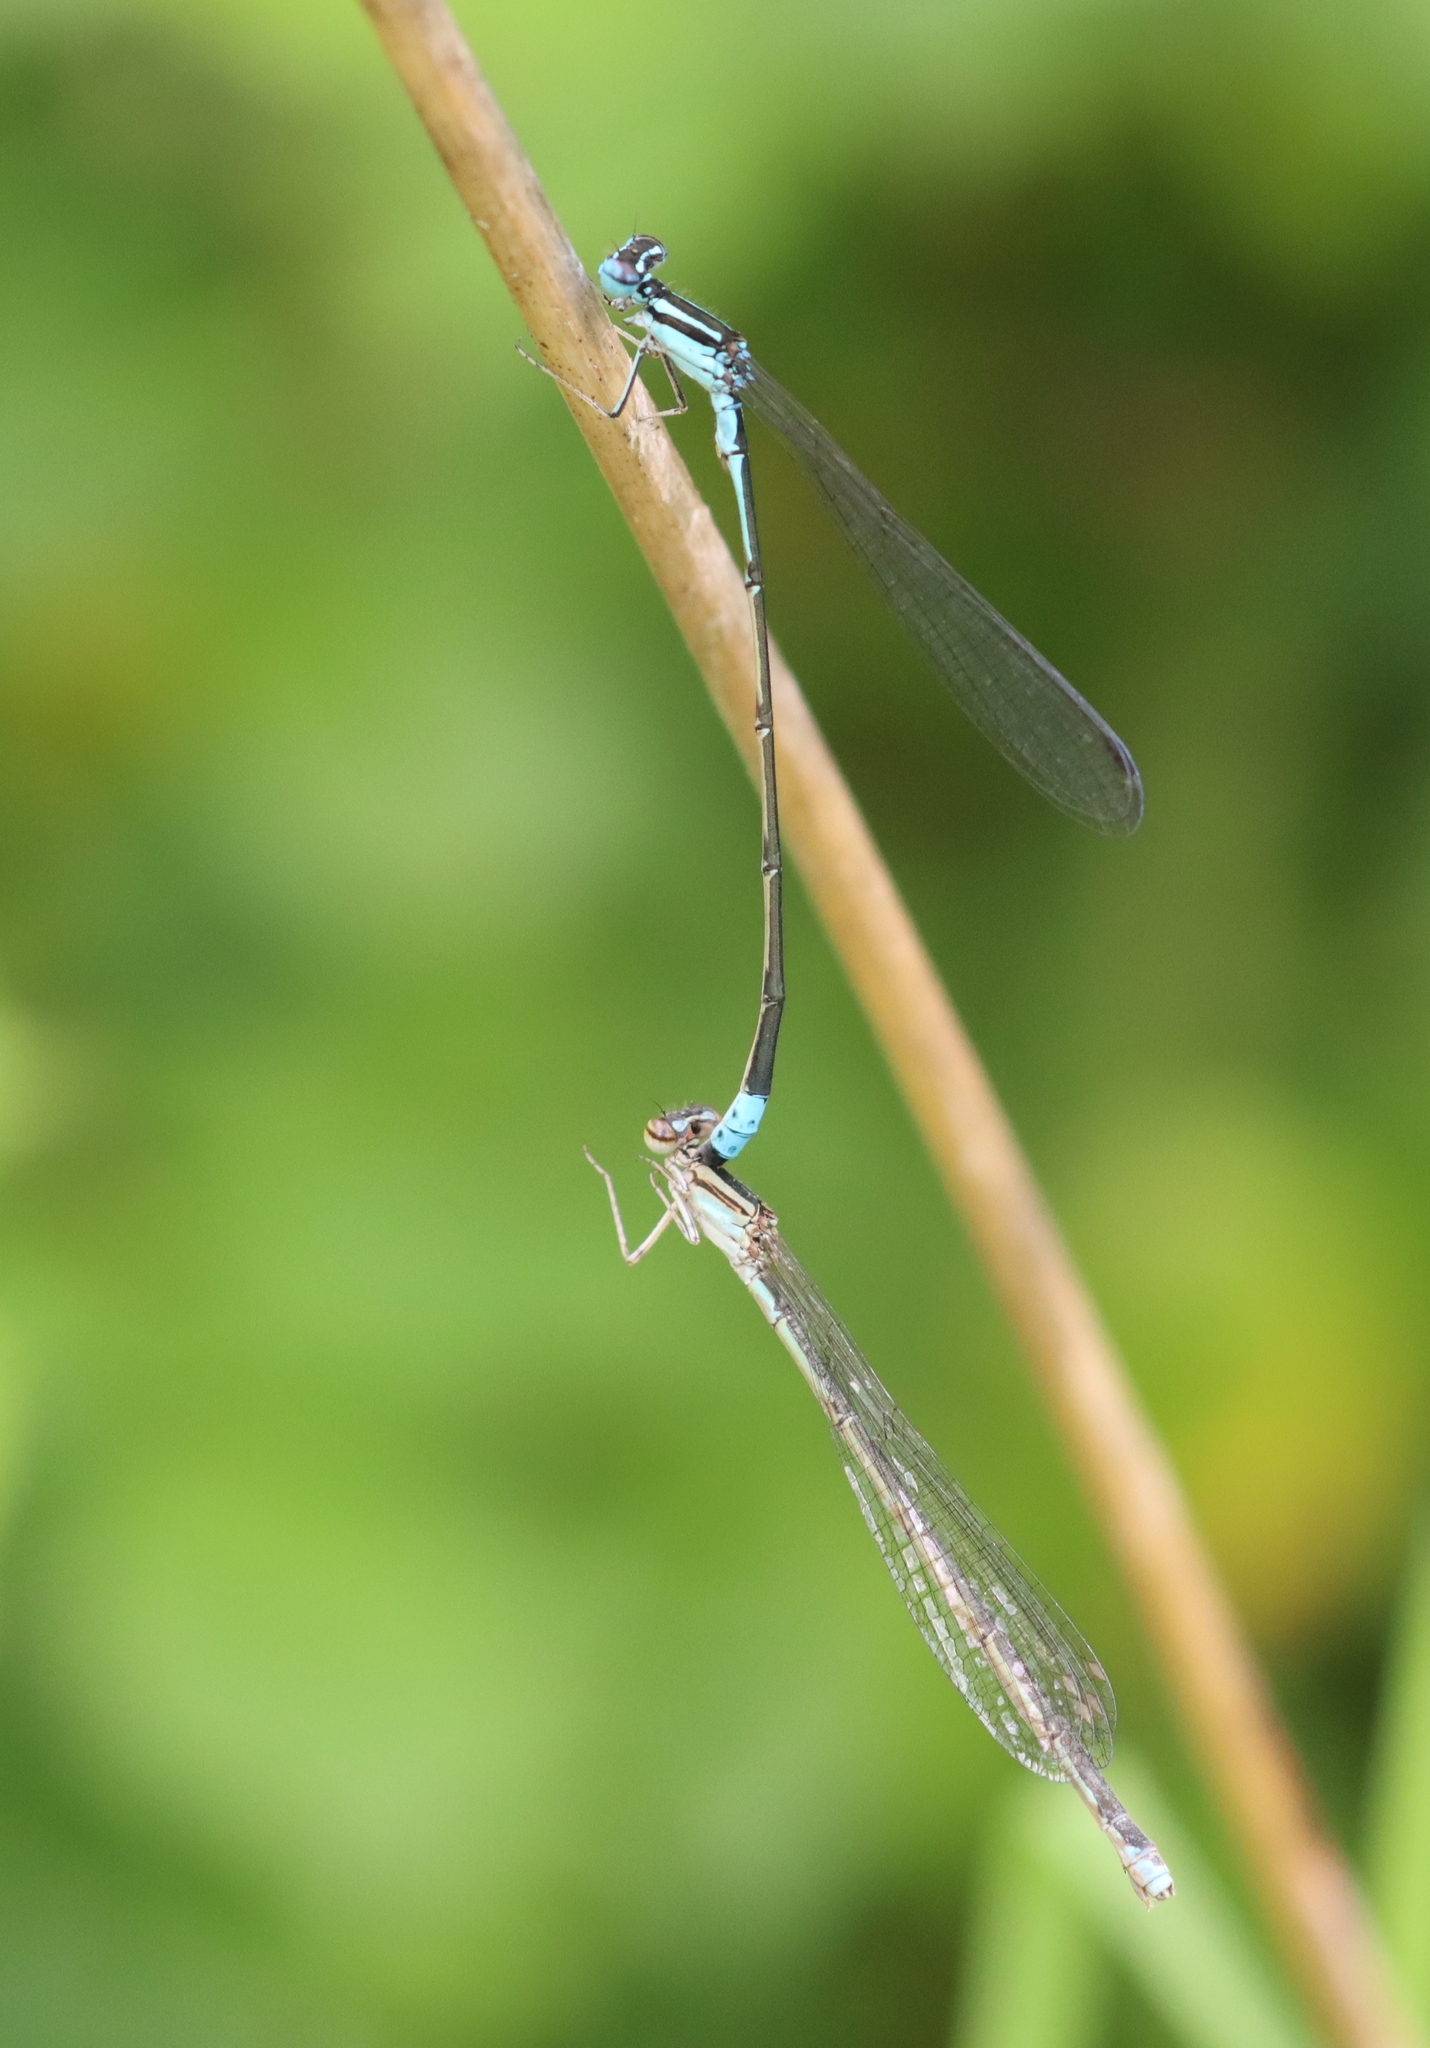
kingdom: Animalia
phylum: Arthropoda
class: Insecta
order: Odonata
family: Coenagrionidae
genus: Enallagma
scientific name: Enallagma divagans
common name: Turquoise bluet
